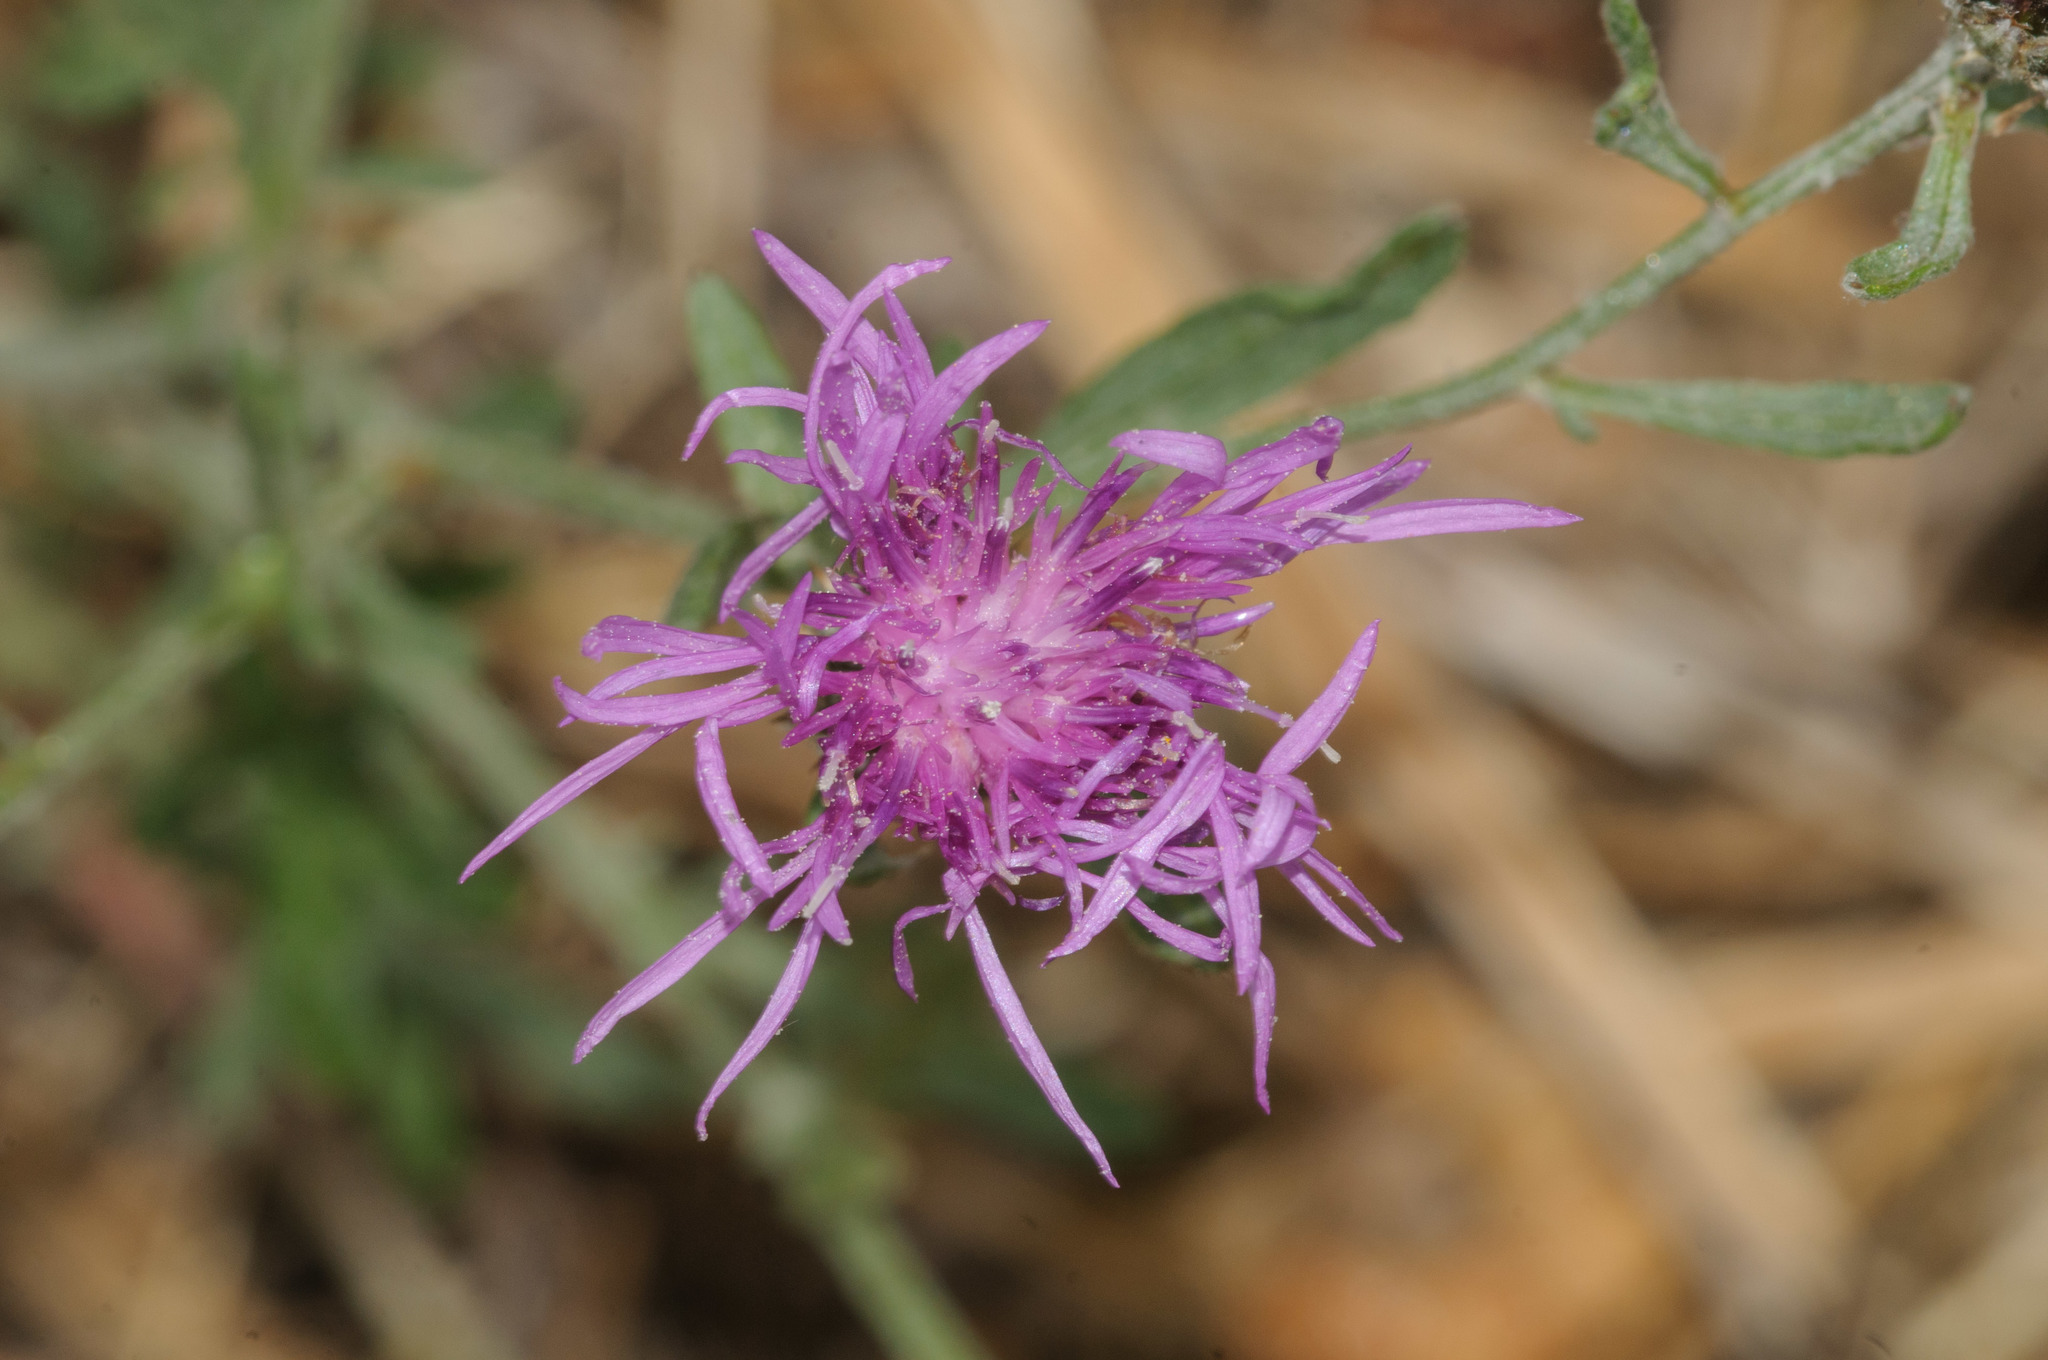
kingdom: Plantae
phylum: Tracheophyta
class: Magnoliopsida
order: Asterales
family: Asteraceae
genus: Centaurea
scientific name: Centaurea stoebe
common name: Spotted knapweed
